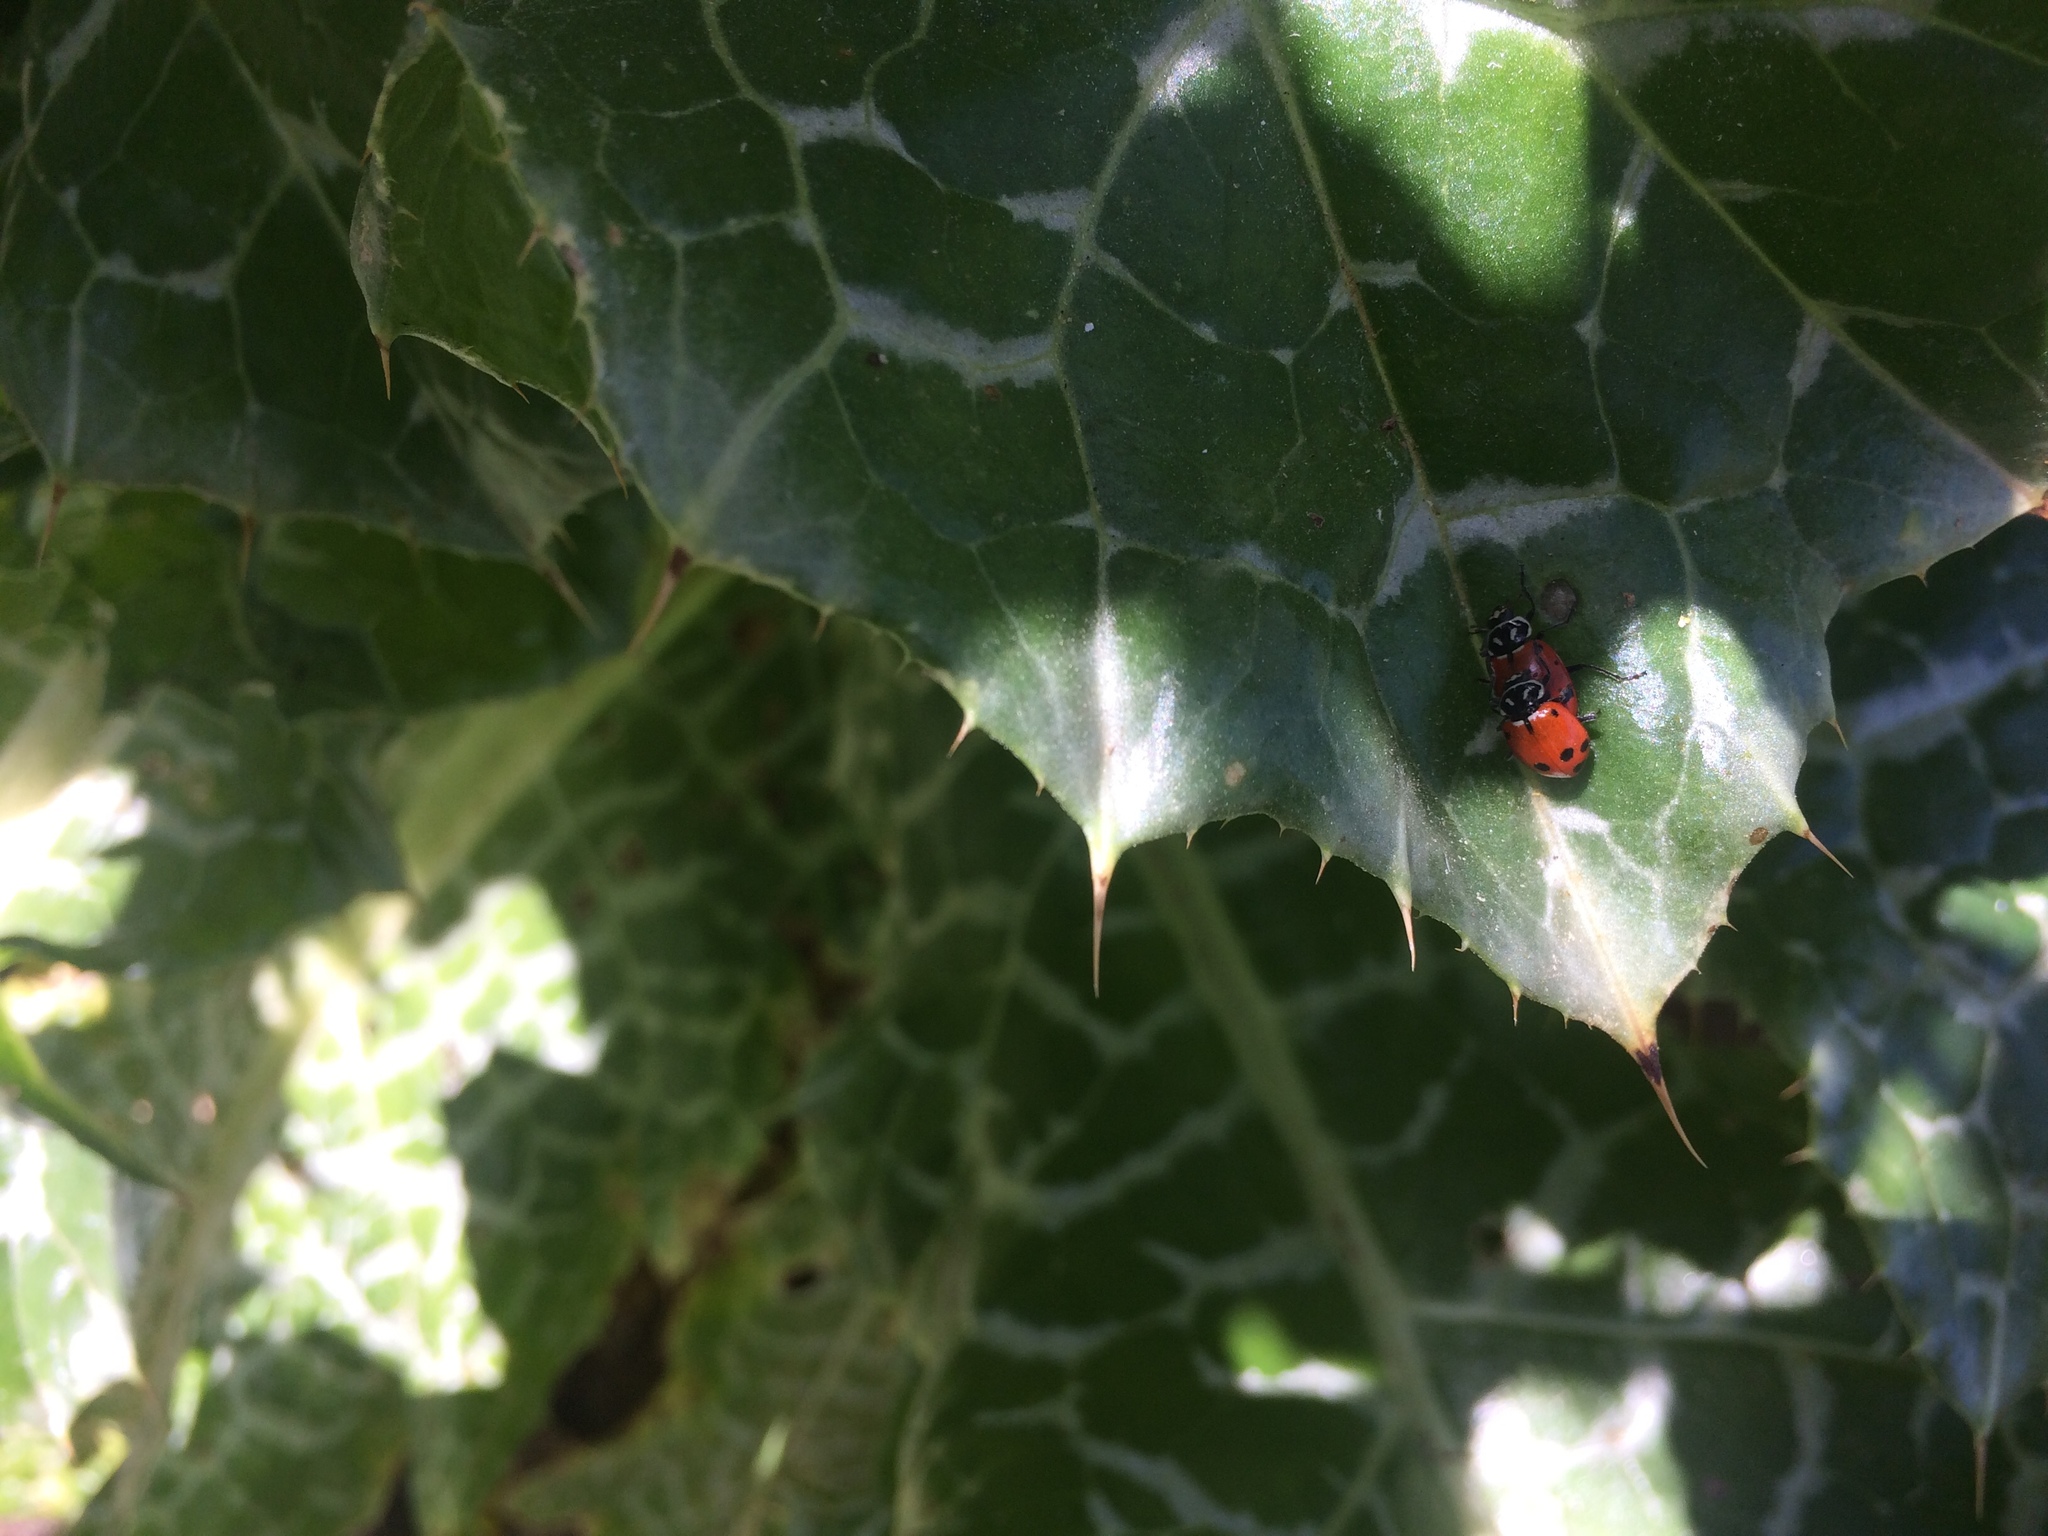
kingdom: Animalia
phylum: Arthropoda
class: Insecta
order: Coleoptera
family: Coccinellidae
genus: Hippodamia
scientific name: Hippodamia convergens
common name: Convergent lady beetle
